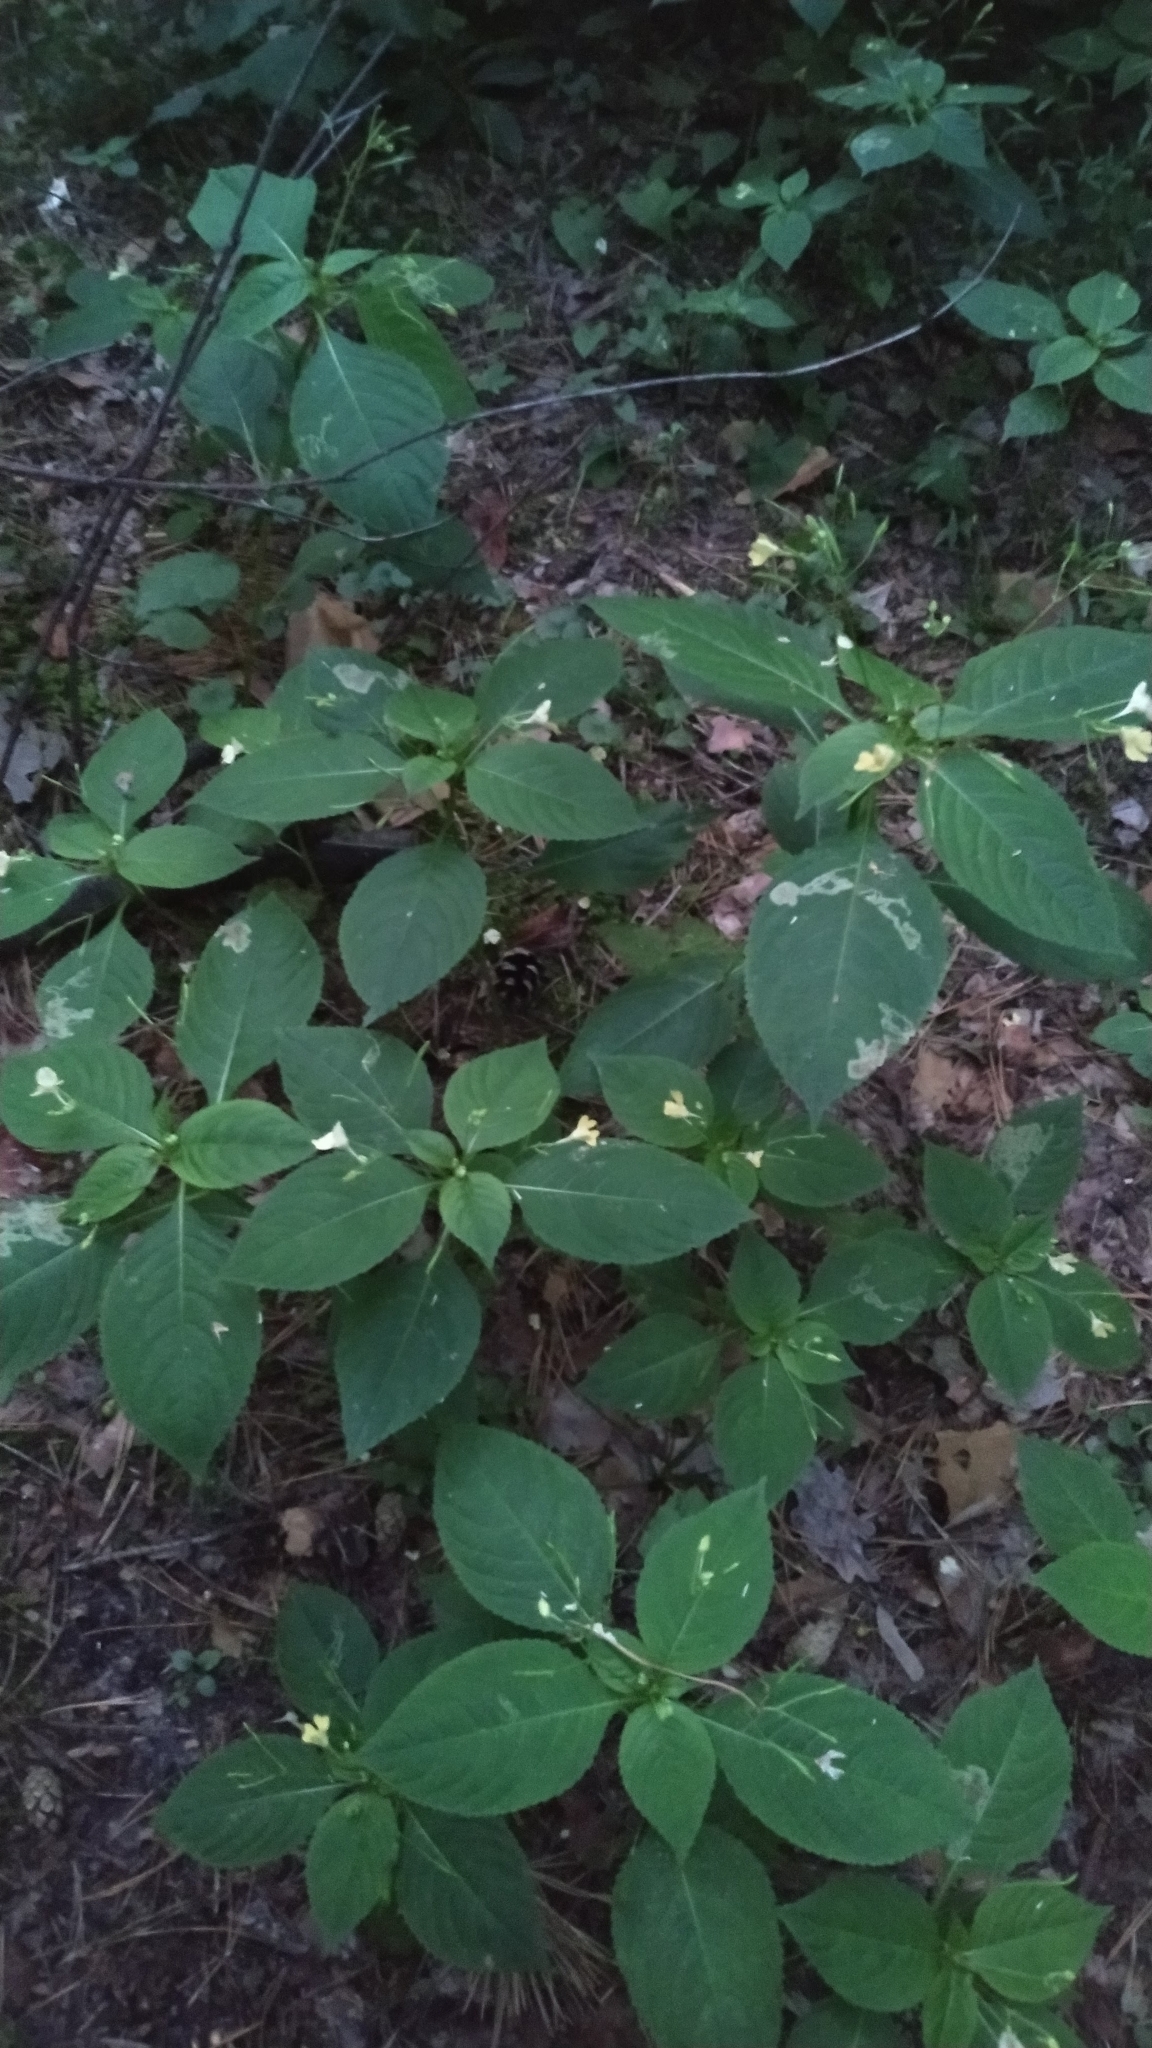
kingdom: Plantae
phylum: Tracheophyta
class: Magnoliopsida
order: Ericales
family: Balsaminaceae
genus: Impatiens
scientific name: Impatiens parviflora
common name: Small balsam
